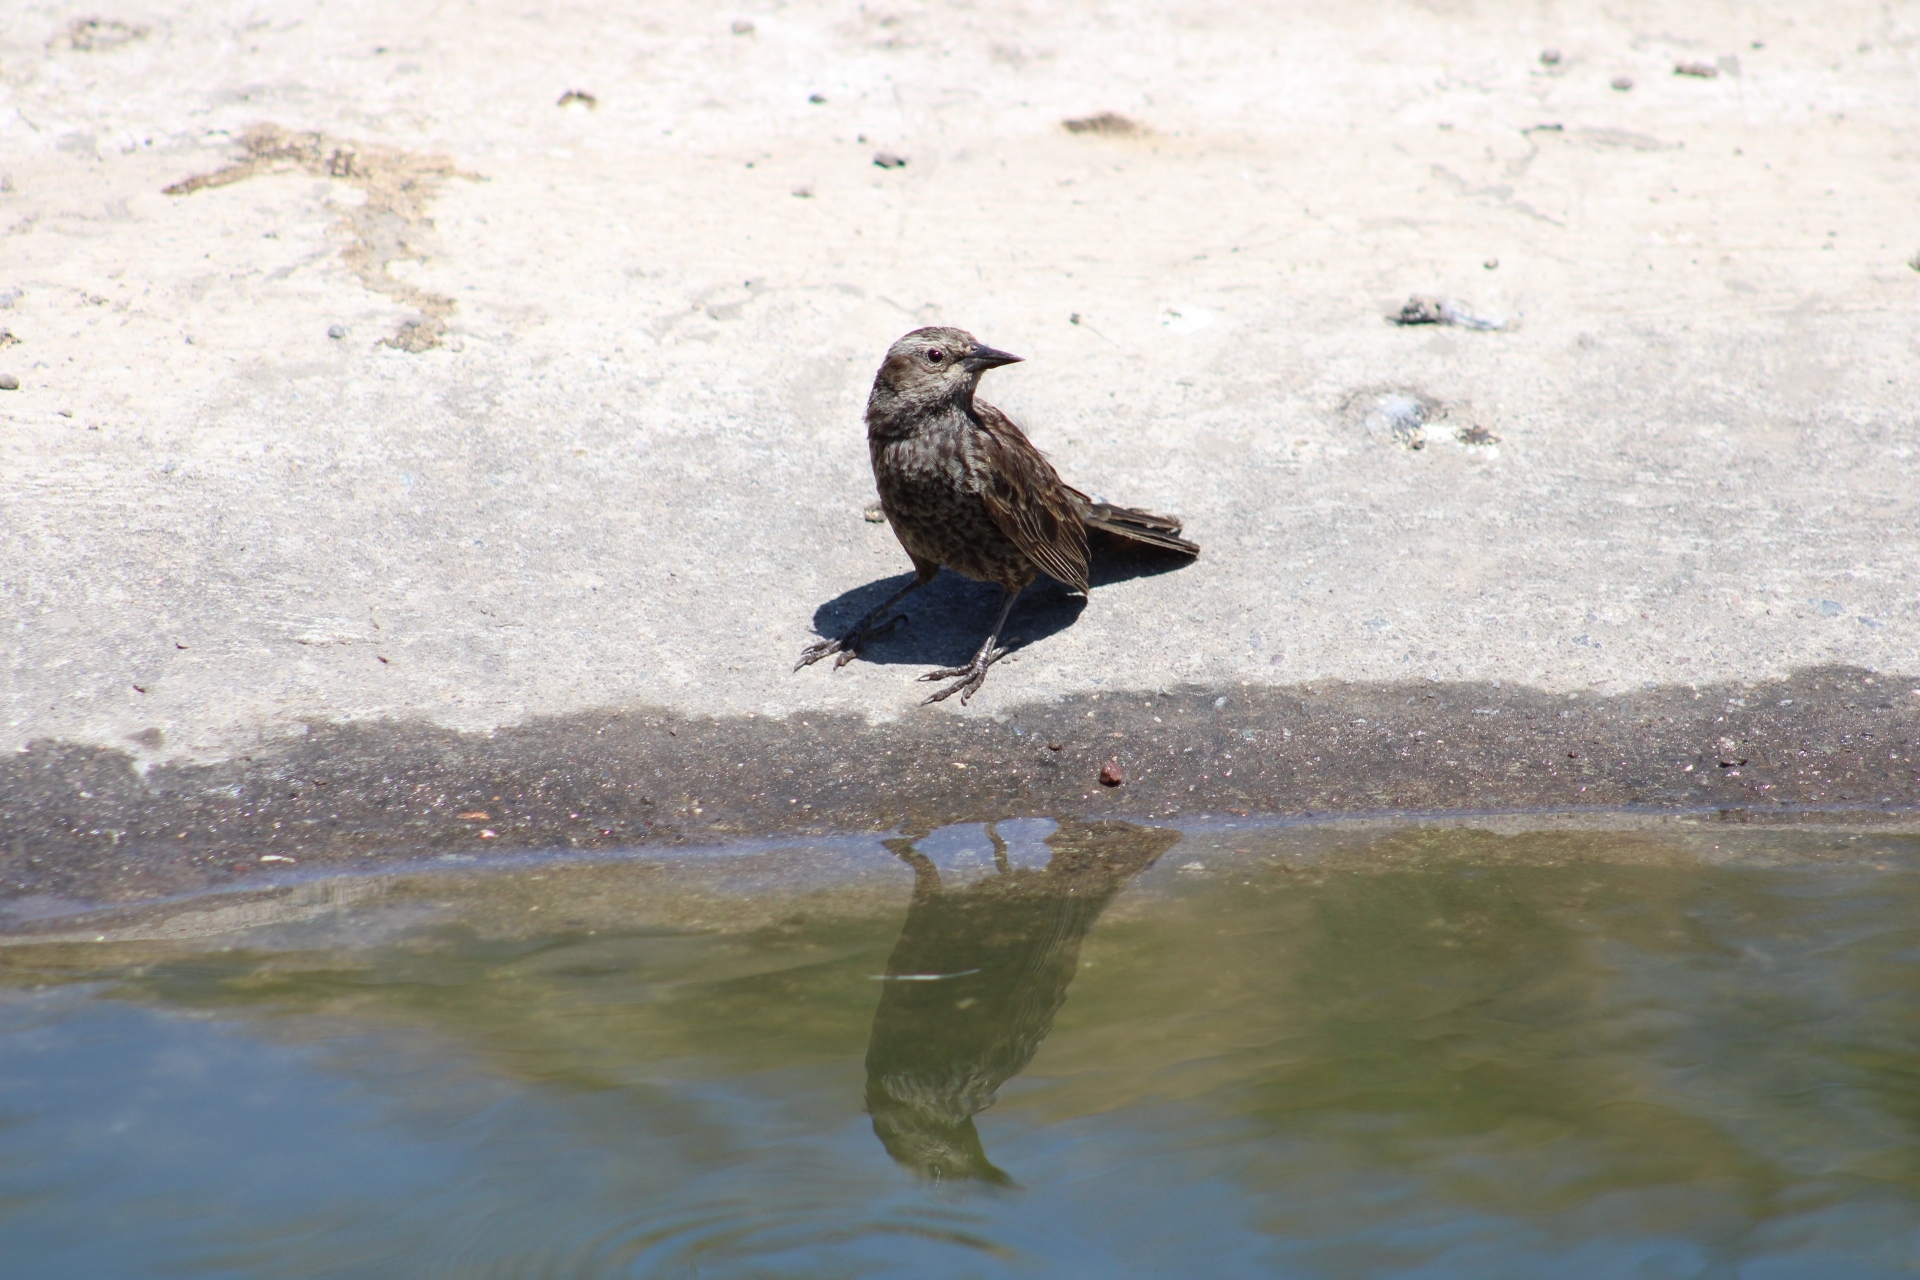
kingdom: Animalia
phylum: Chordata
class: Aves
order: Passeriformes
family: Icteridae
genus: Agelasticus
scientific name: Agelasticus thilius
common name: Yellow-winged blackbird
